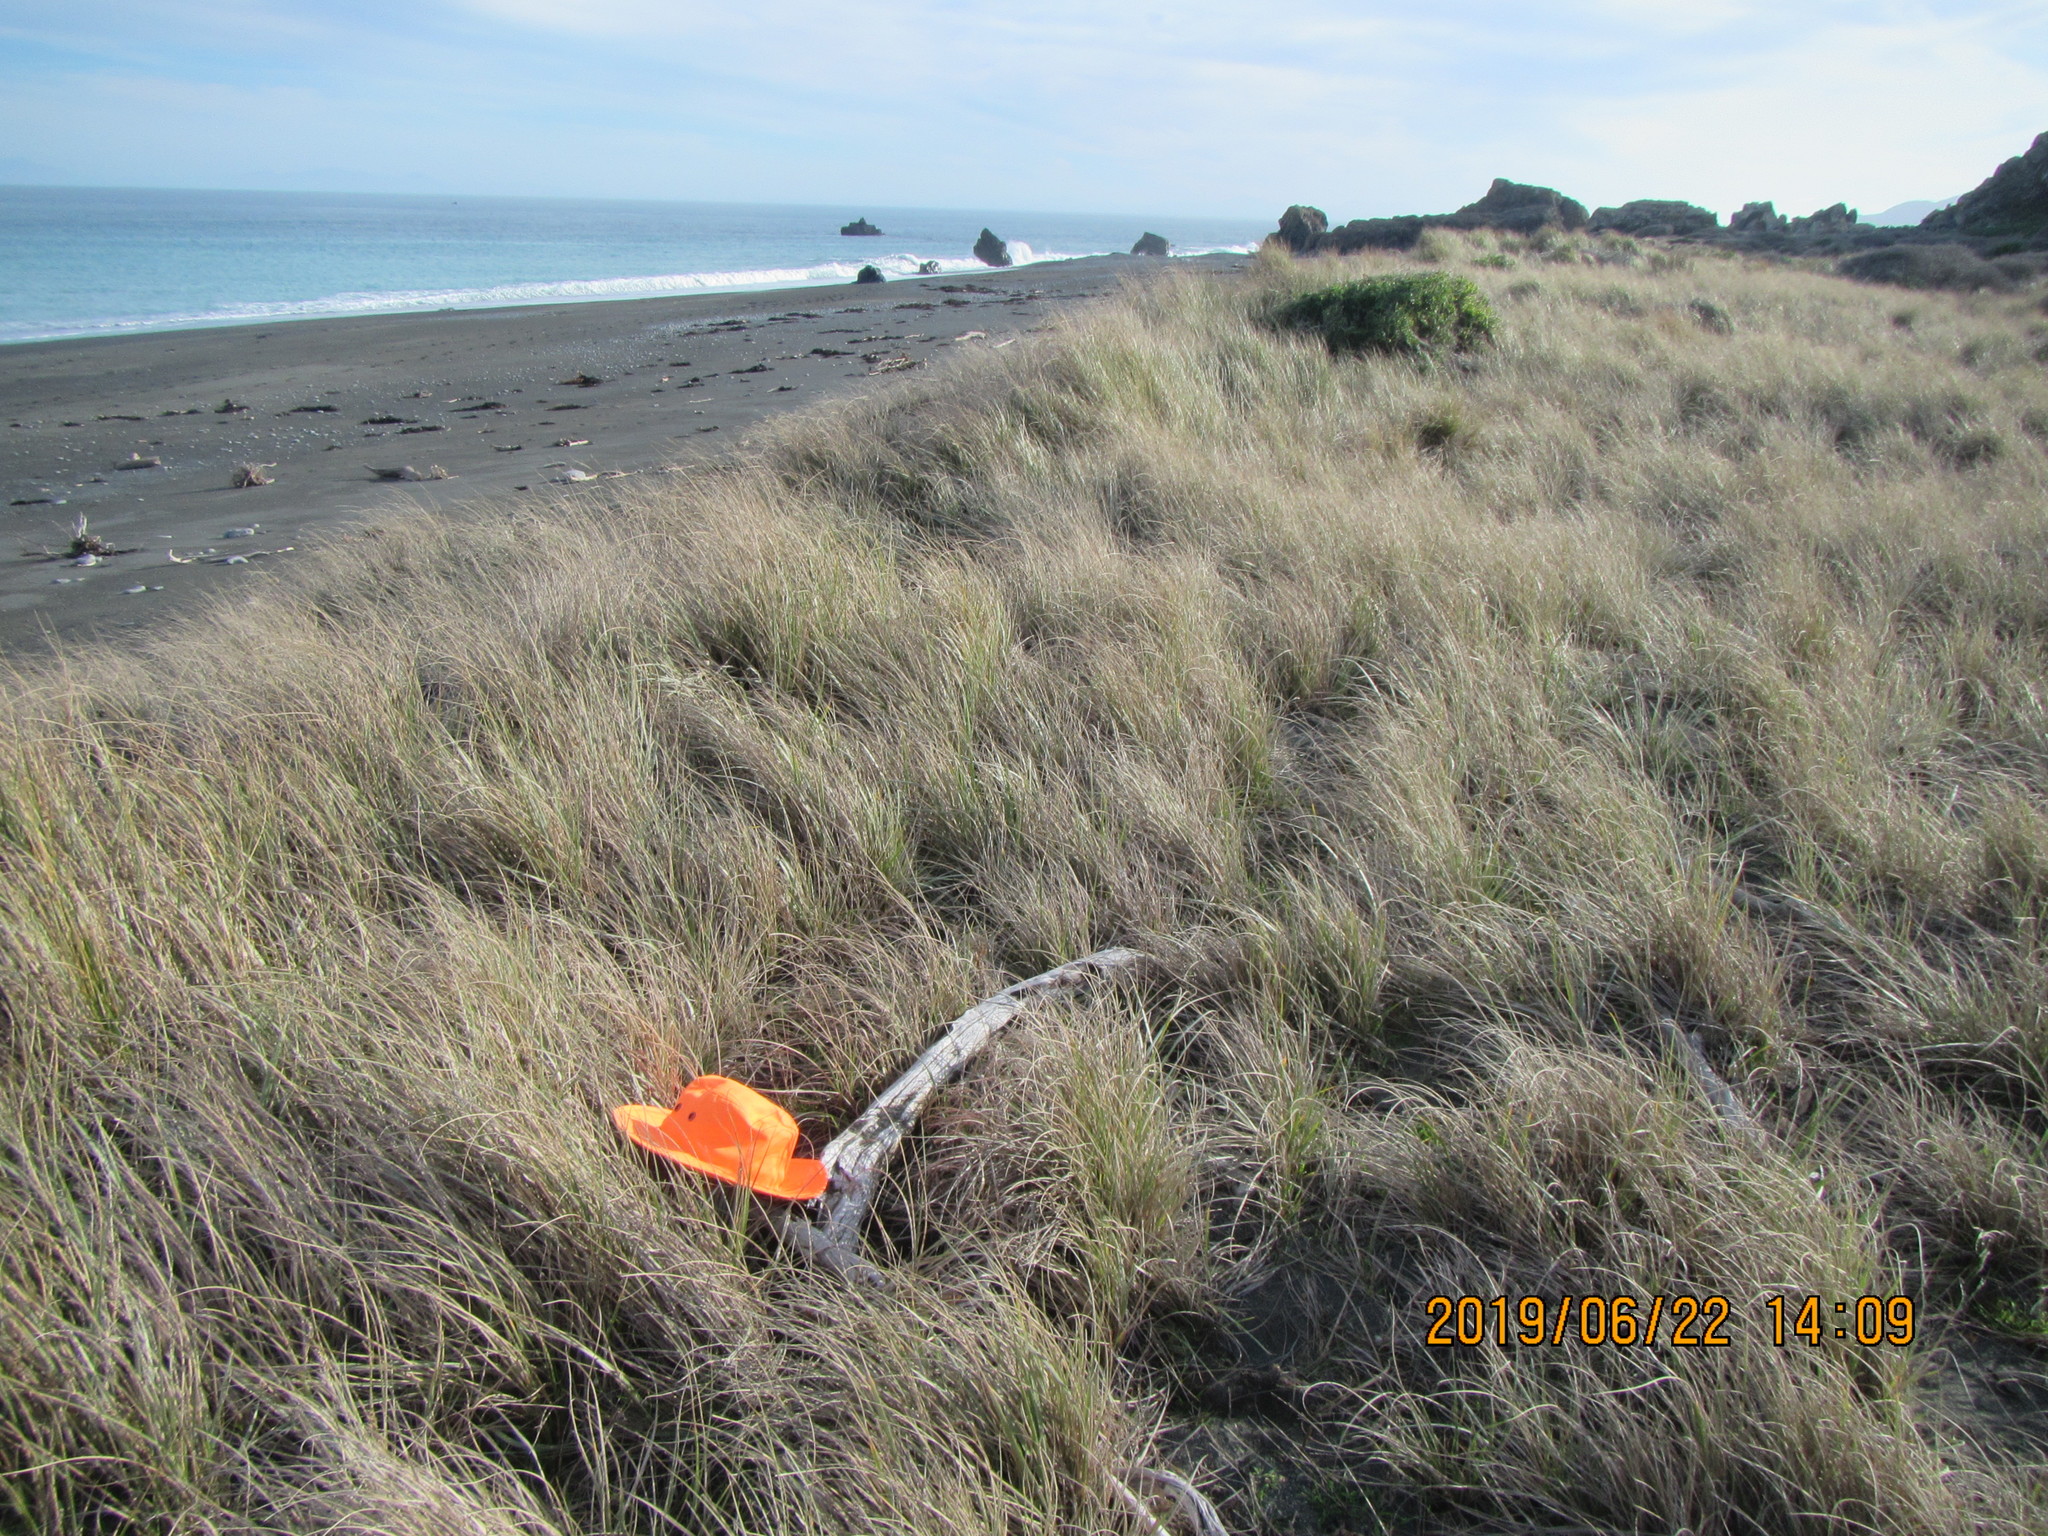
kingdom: Animalia
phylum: Arthropoda
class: Insecta
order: Dermaptera
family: Anisolabididae
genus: Anisolabis
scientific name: Anisolabis littorea
